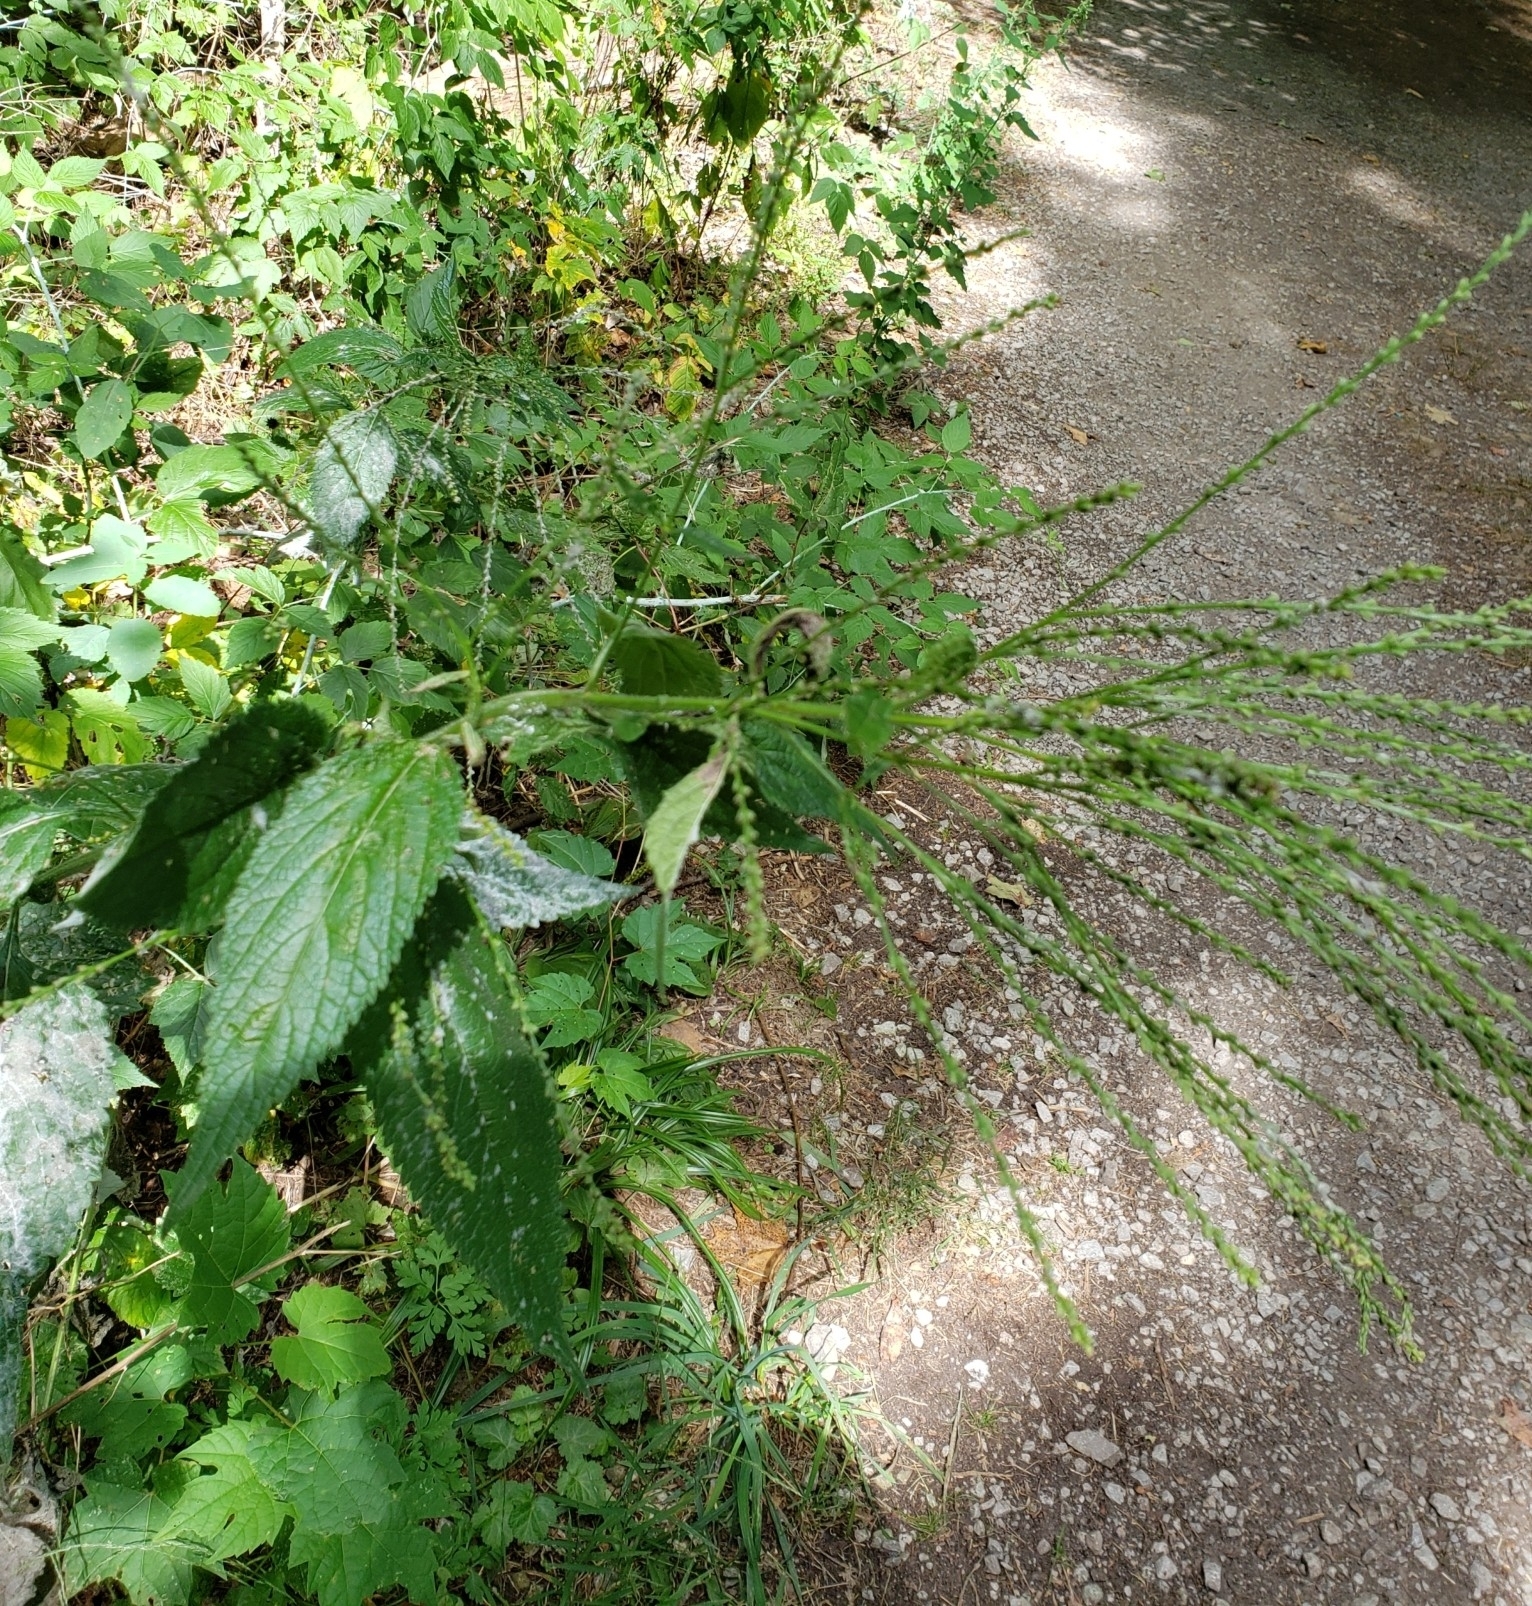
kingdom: Plantae
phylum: Tracheophyta
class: Magnoliopsida
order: Lamiales
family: Verbenaceae
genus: Verbena
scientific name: Verbena urticifolia
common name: Nettle-leaved vervain
